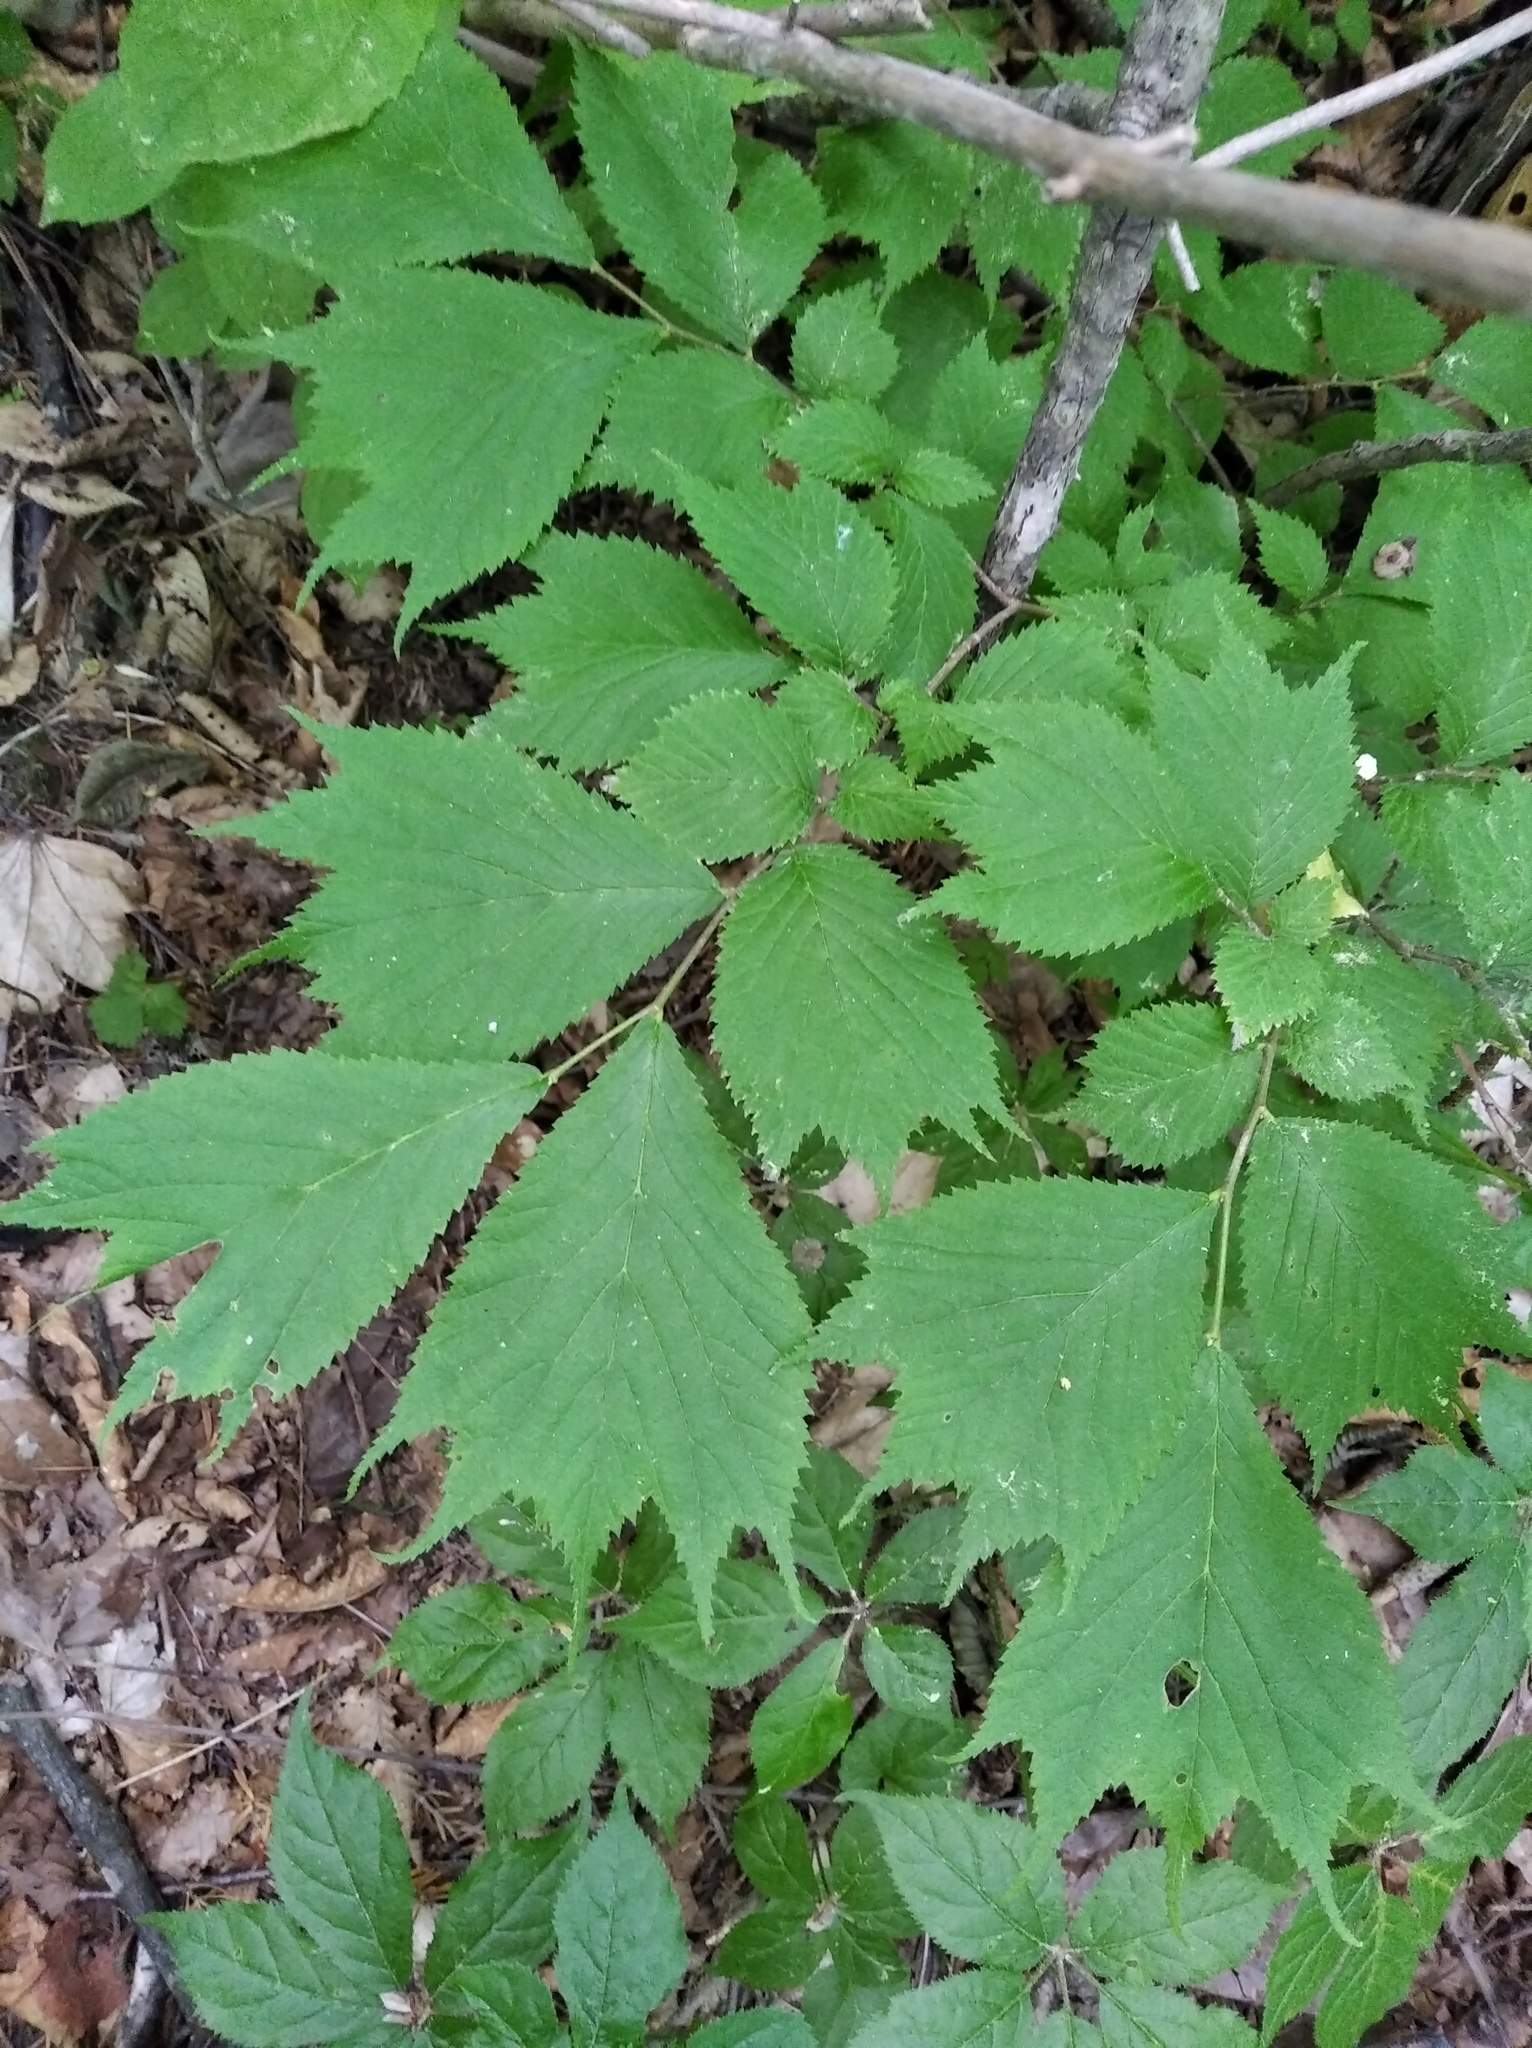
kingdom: Plantae
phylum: Tracheophyta
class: Magnoliopsida
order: Rosales
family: Ulmaceae
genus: Ulmus
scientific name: Ulmus laciniata
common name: Japanese elm
